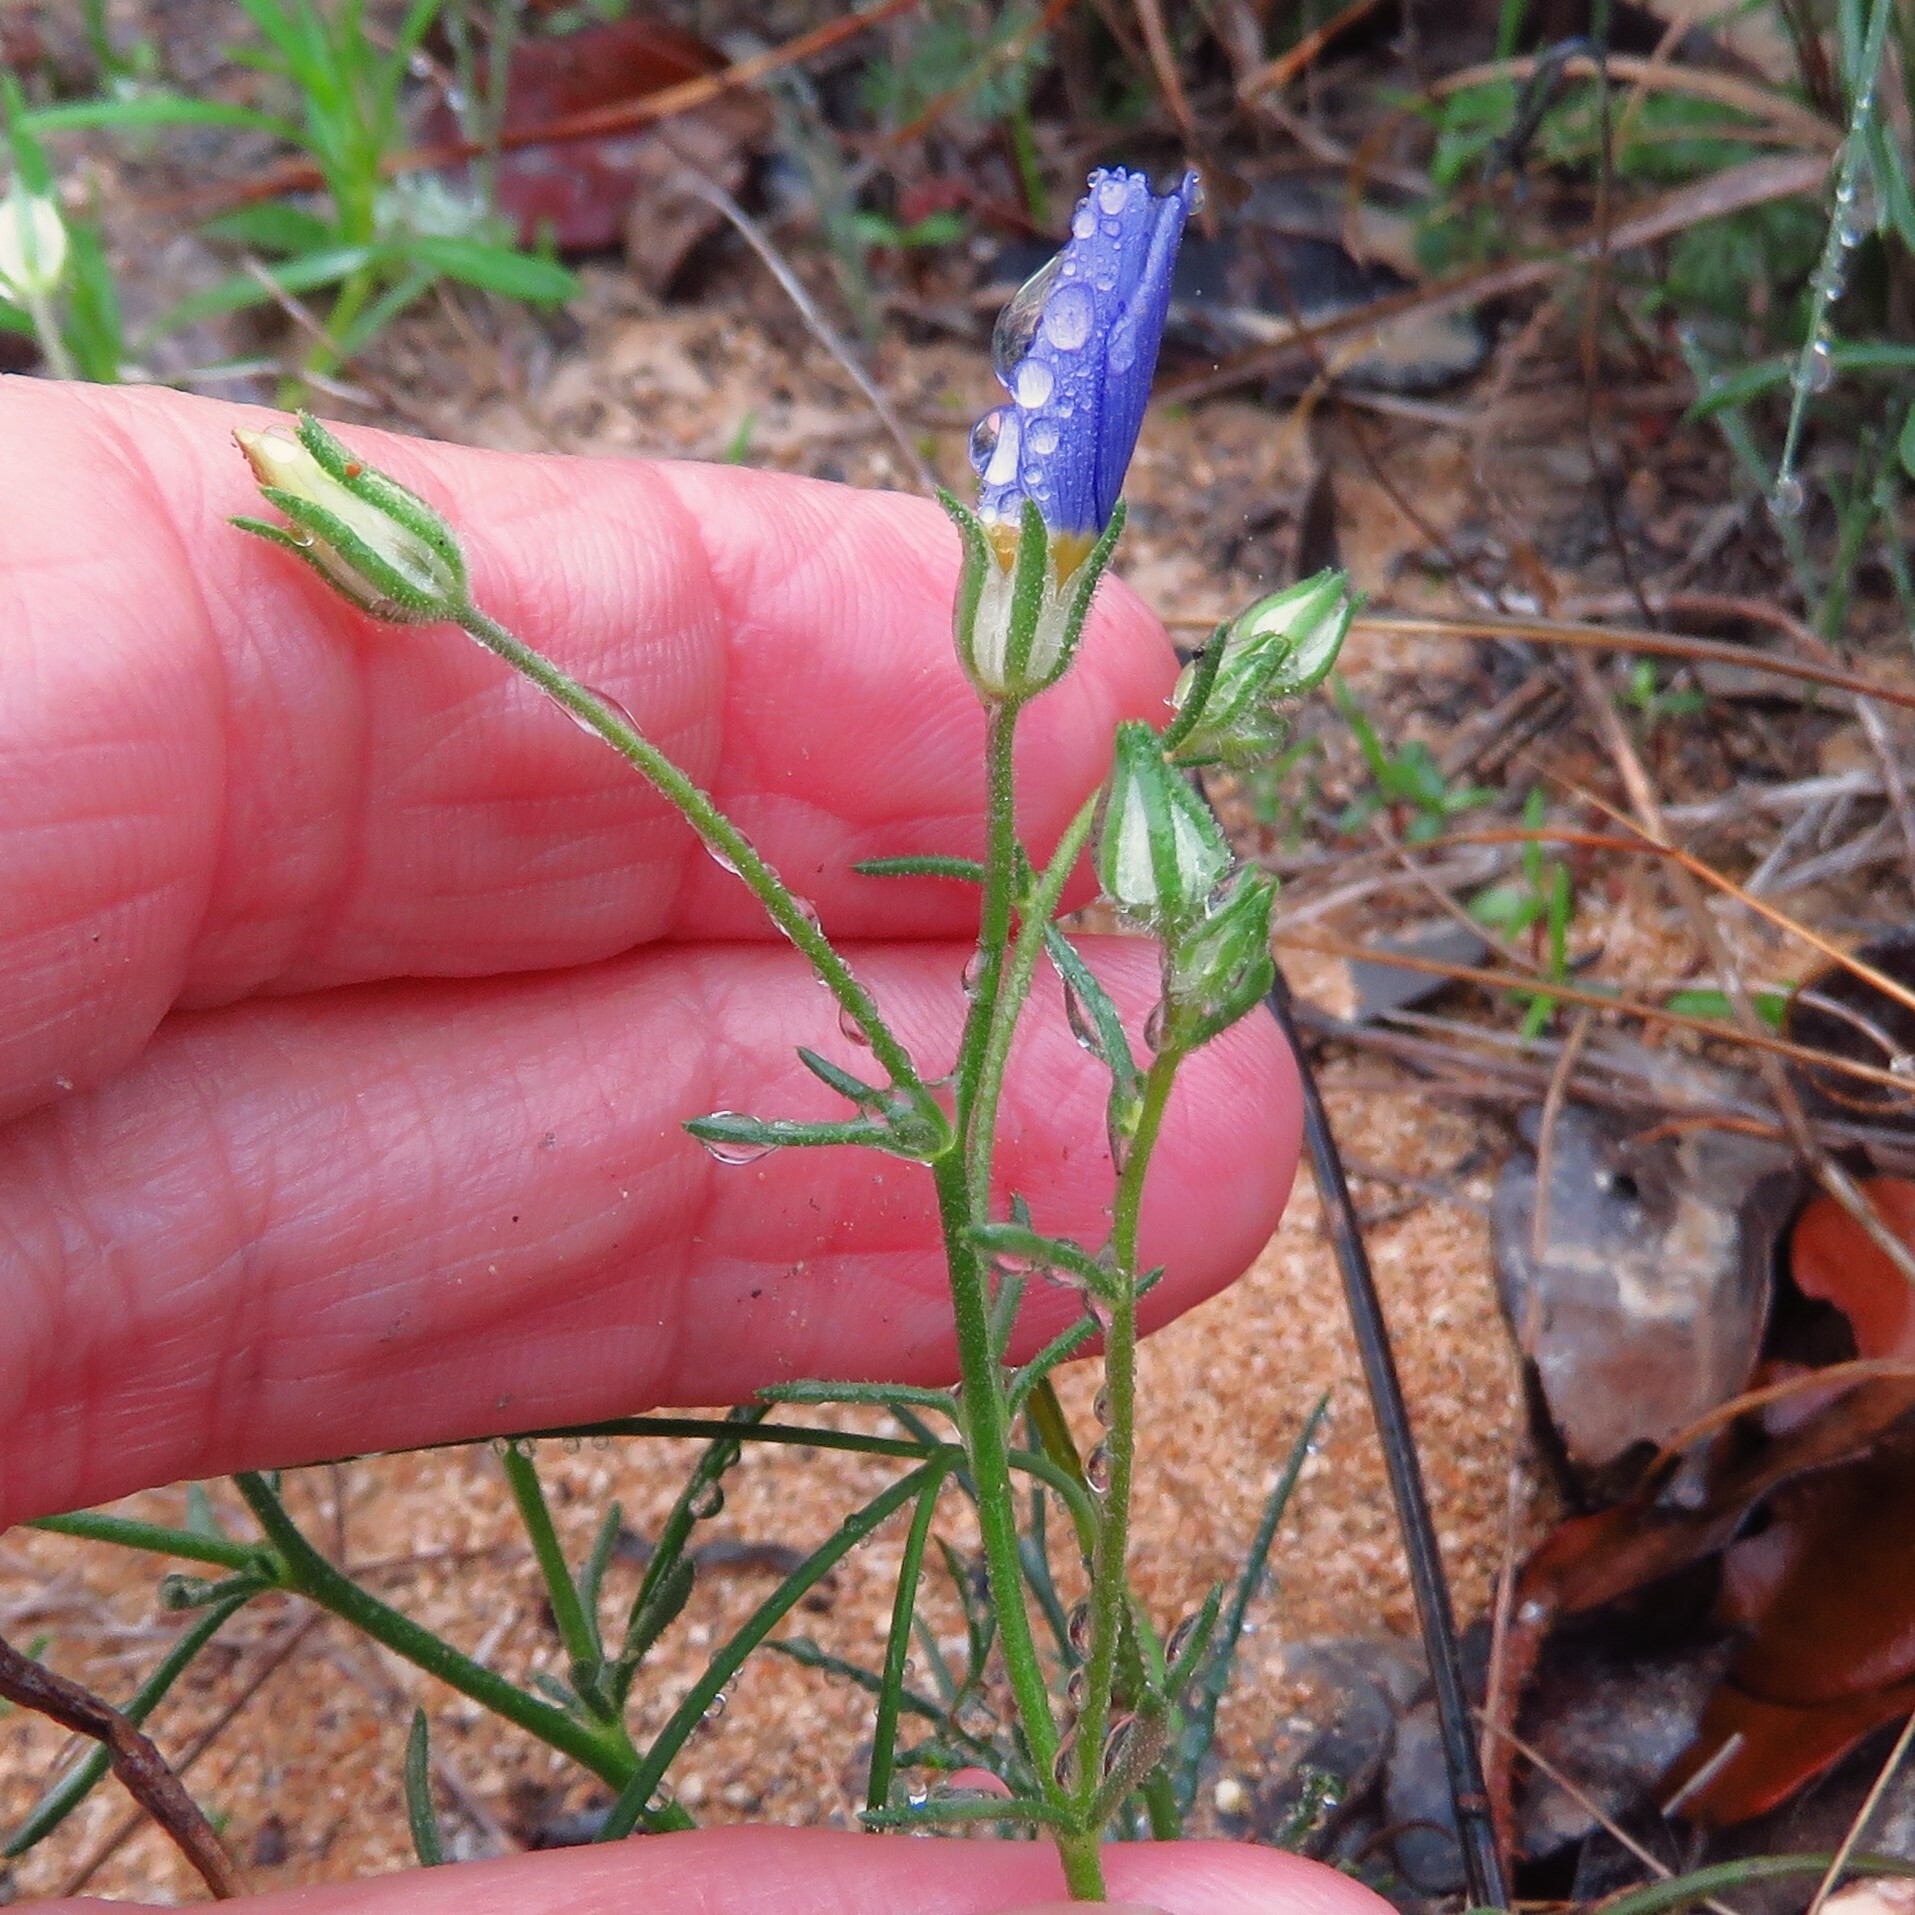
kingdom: Plantae
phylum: Tracheophyta
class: Magnoliopsida
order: Ericales
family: Polemoniaceae
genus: Giliastrum
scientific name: Giliastrum rigidulum
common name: Bluebowls
